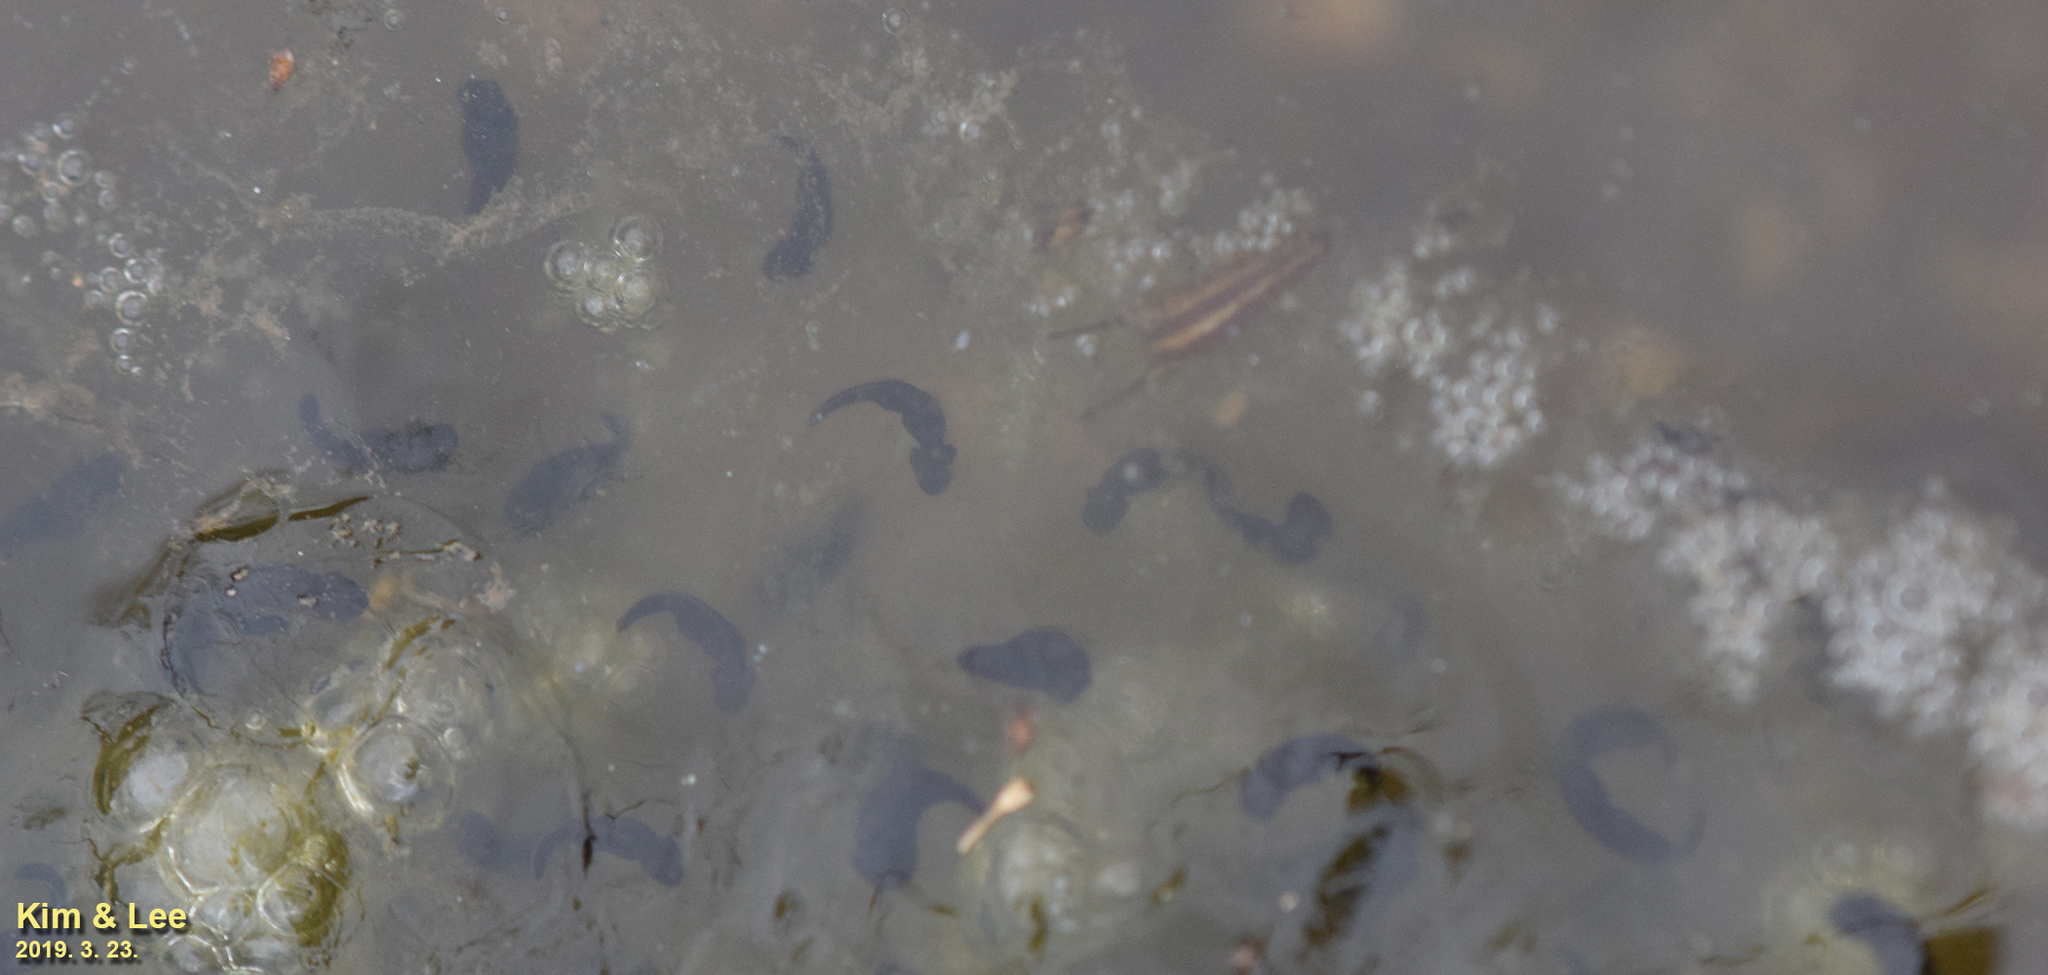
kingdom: Animalia
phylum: Chordata
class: Amphibia
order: Anura
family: Ranidae
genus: Rana
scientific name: Rana uenoi
